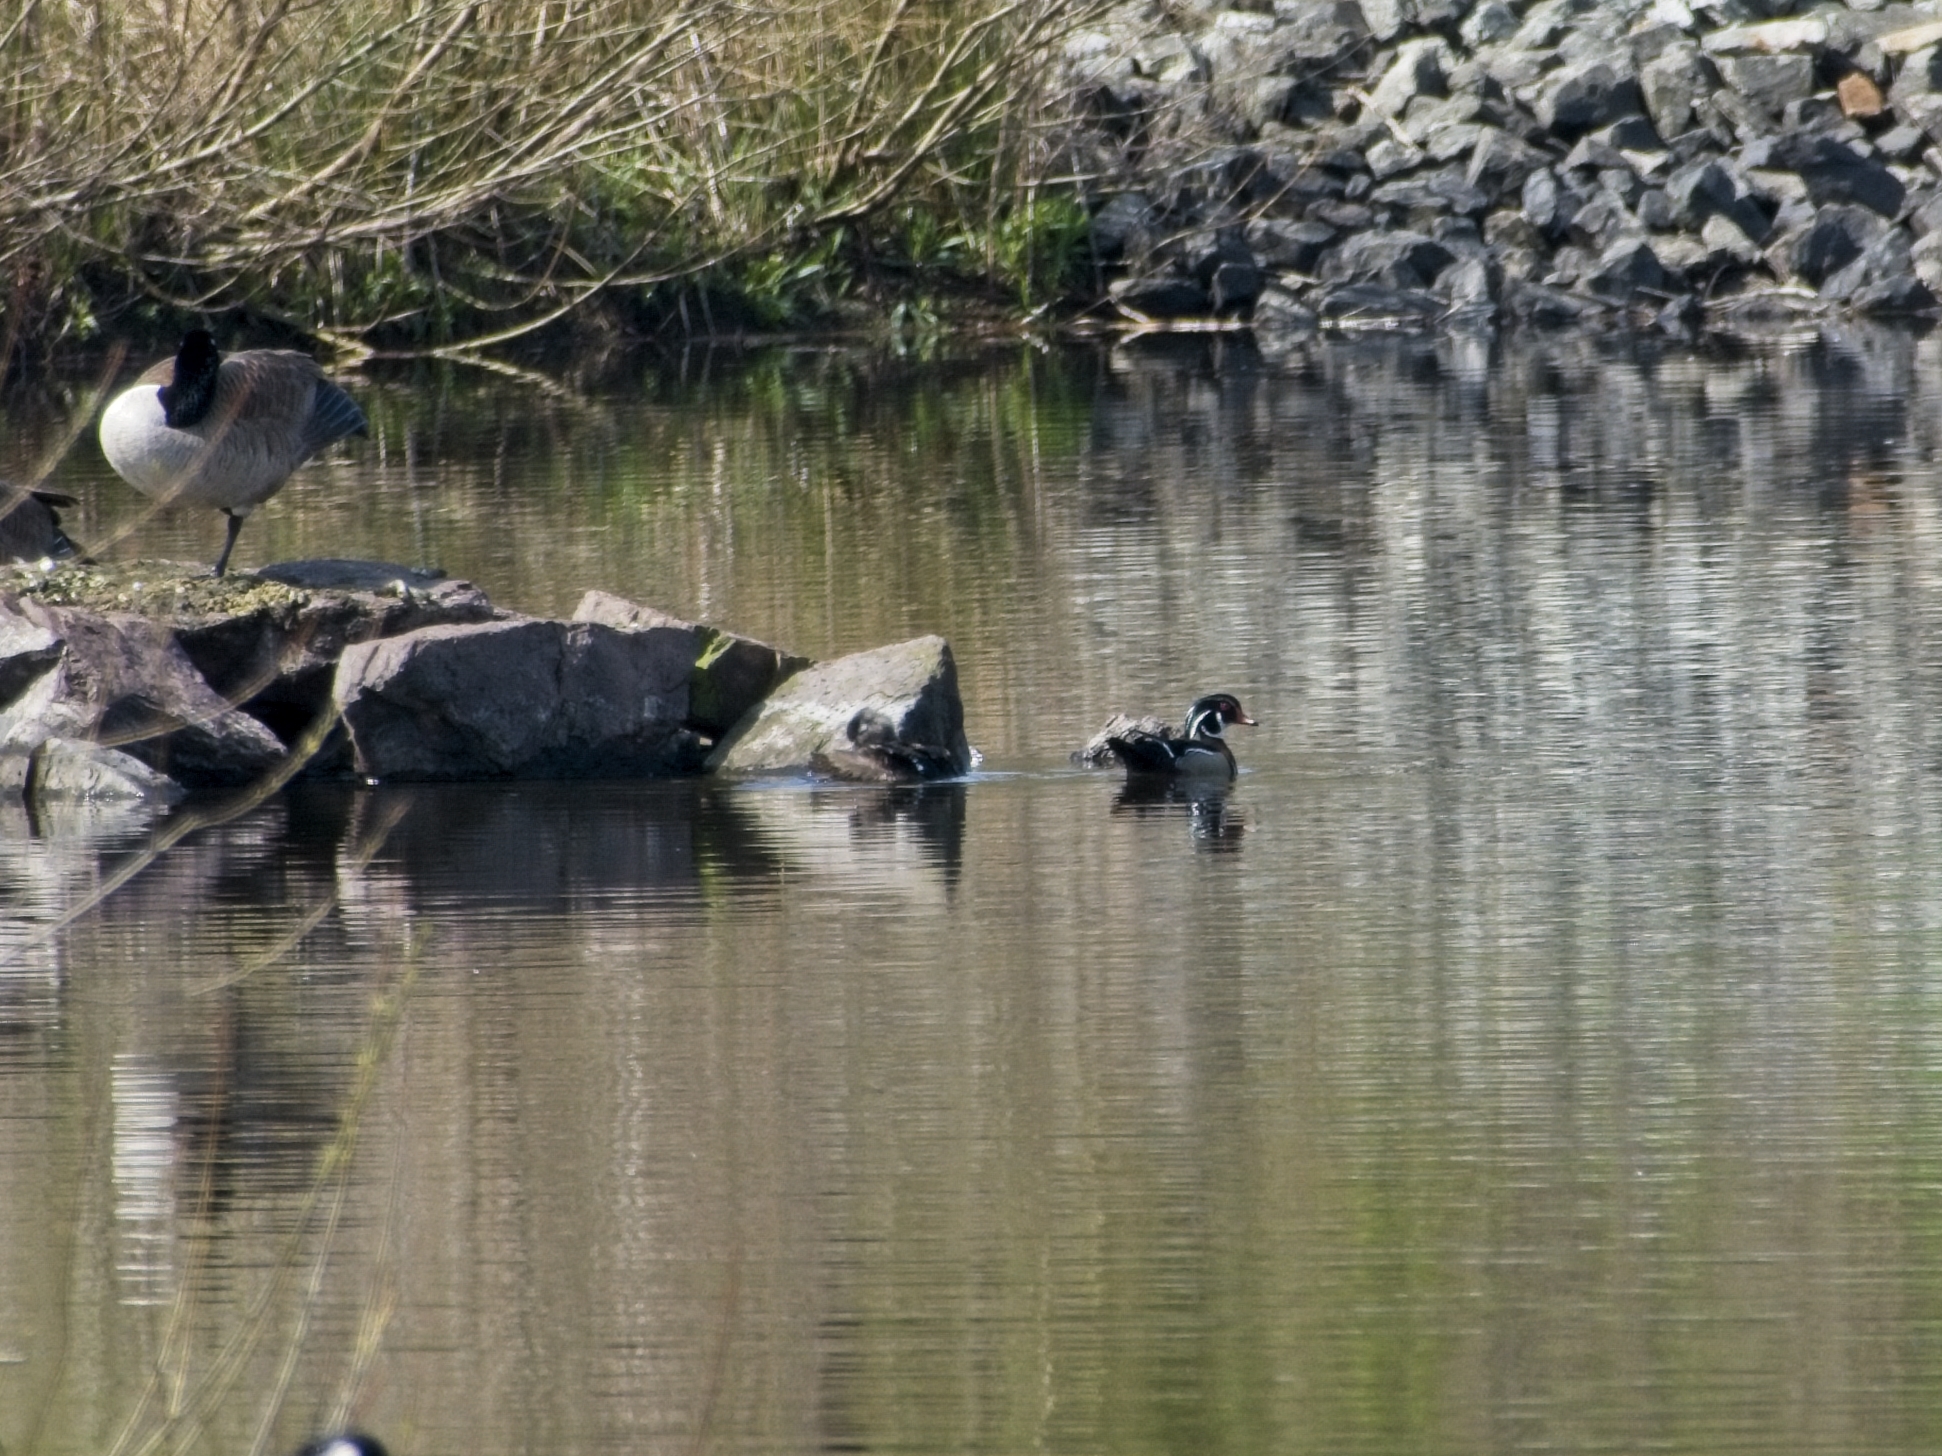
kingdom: Animalia
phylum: Chordata
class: Aves
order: Anseriformes
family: Anatidae
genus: Aix
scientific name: Aix sponsa
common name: Wood duck
